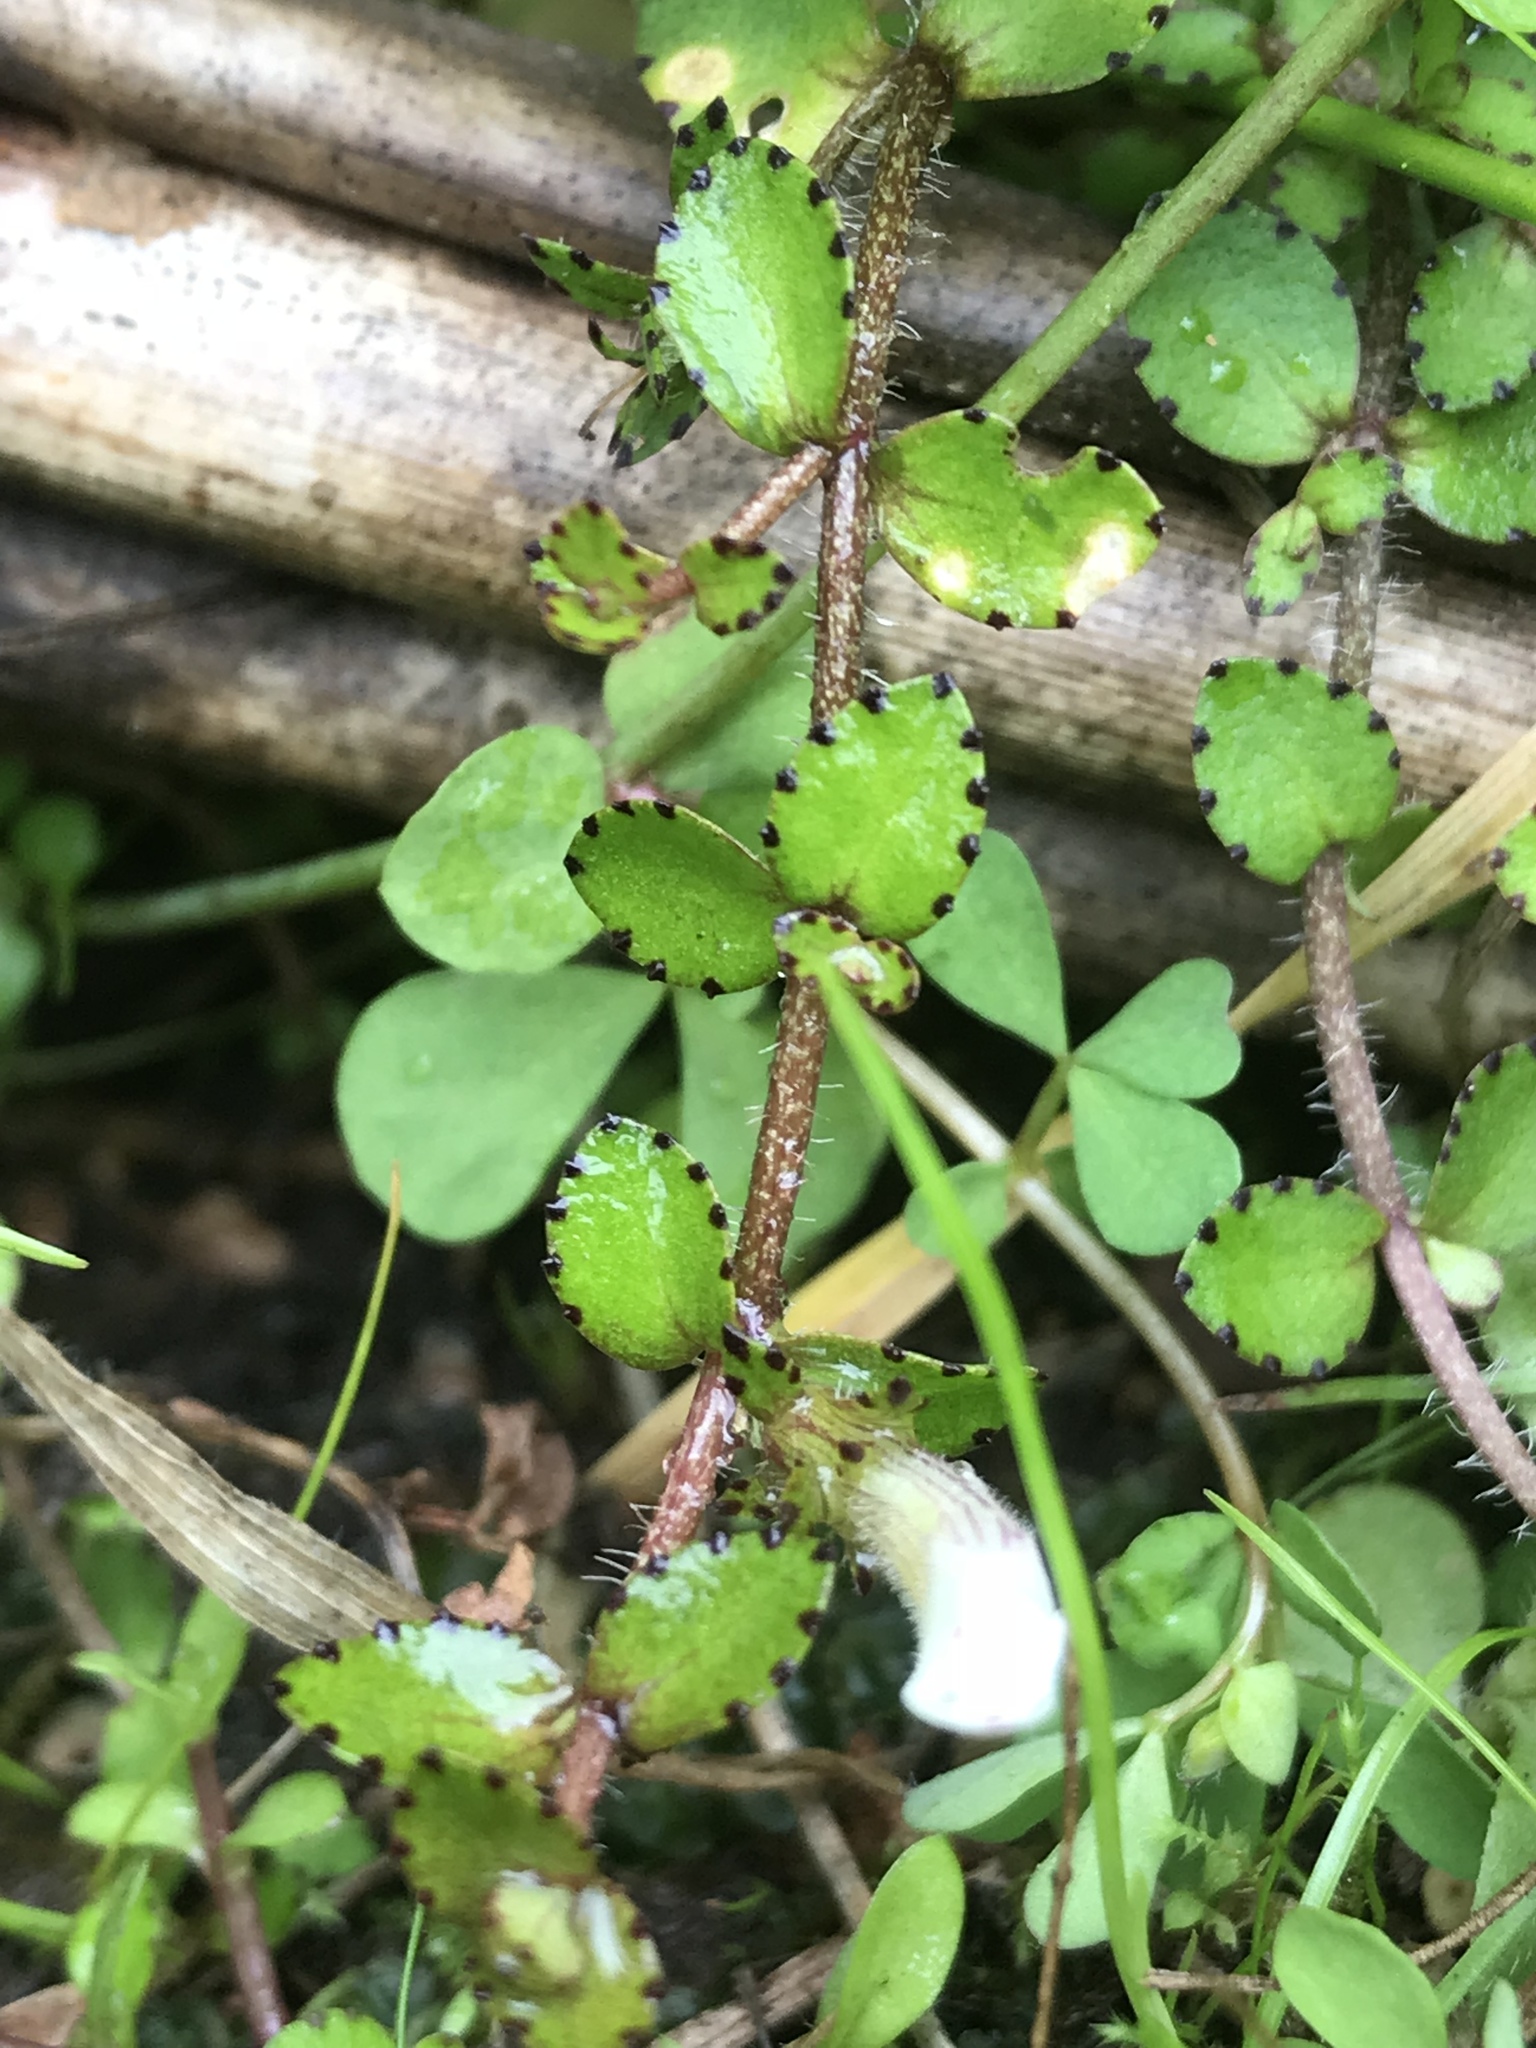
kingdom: Plantae
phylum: Tracheophyta
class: Magnoliopsida
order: Lamiales
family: Plantaginaceae
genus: Gratiola
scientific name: Gratiola nana
